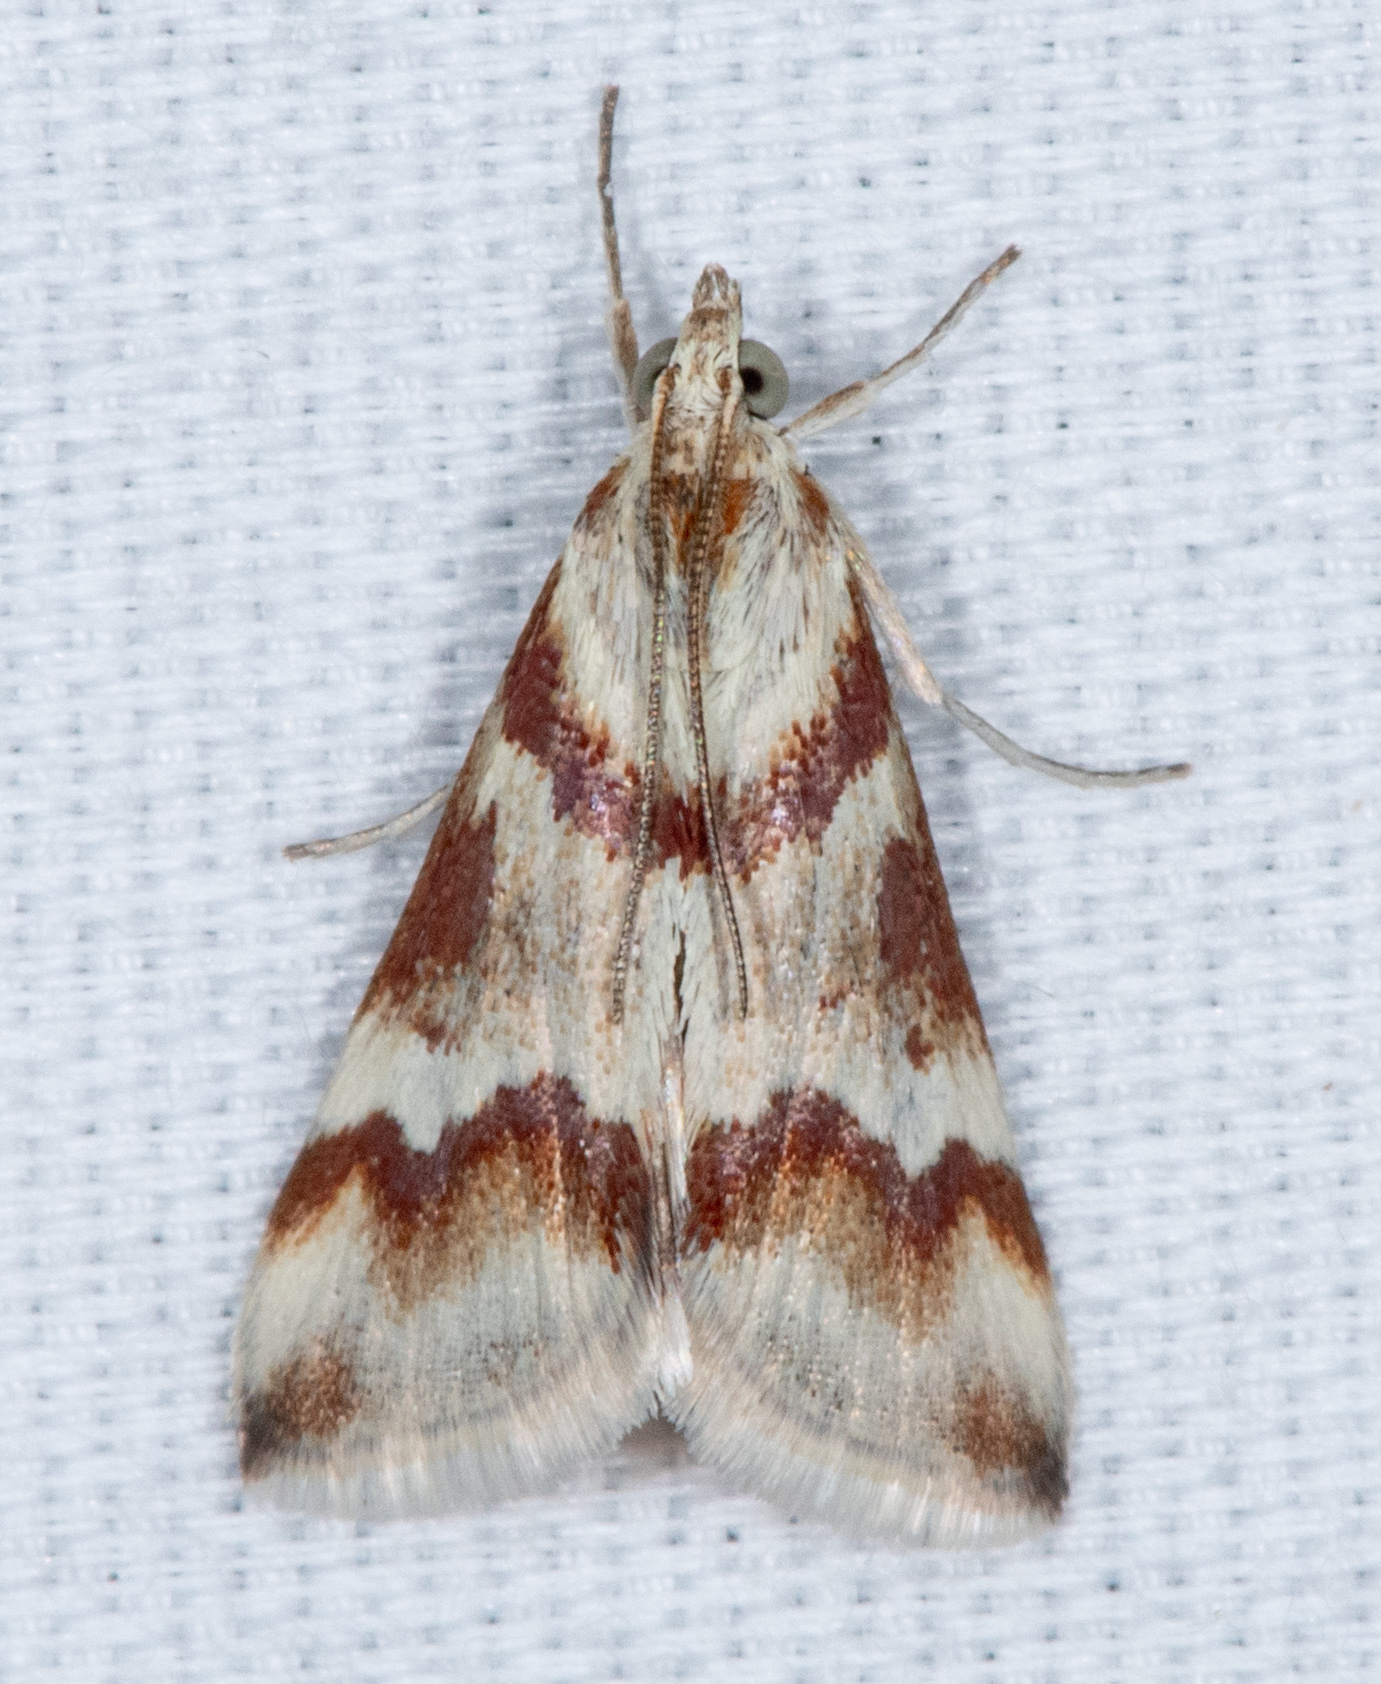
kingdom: Animalia
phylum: Arthropoda
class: Insecta
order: Lepidoptera
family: Crambidae
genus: Noctuelia
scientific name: Noctuelia Mimoschinia rufofascialis
